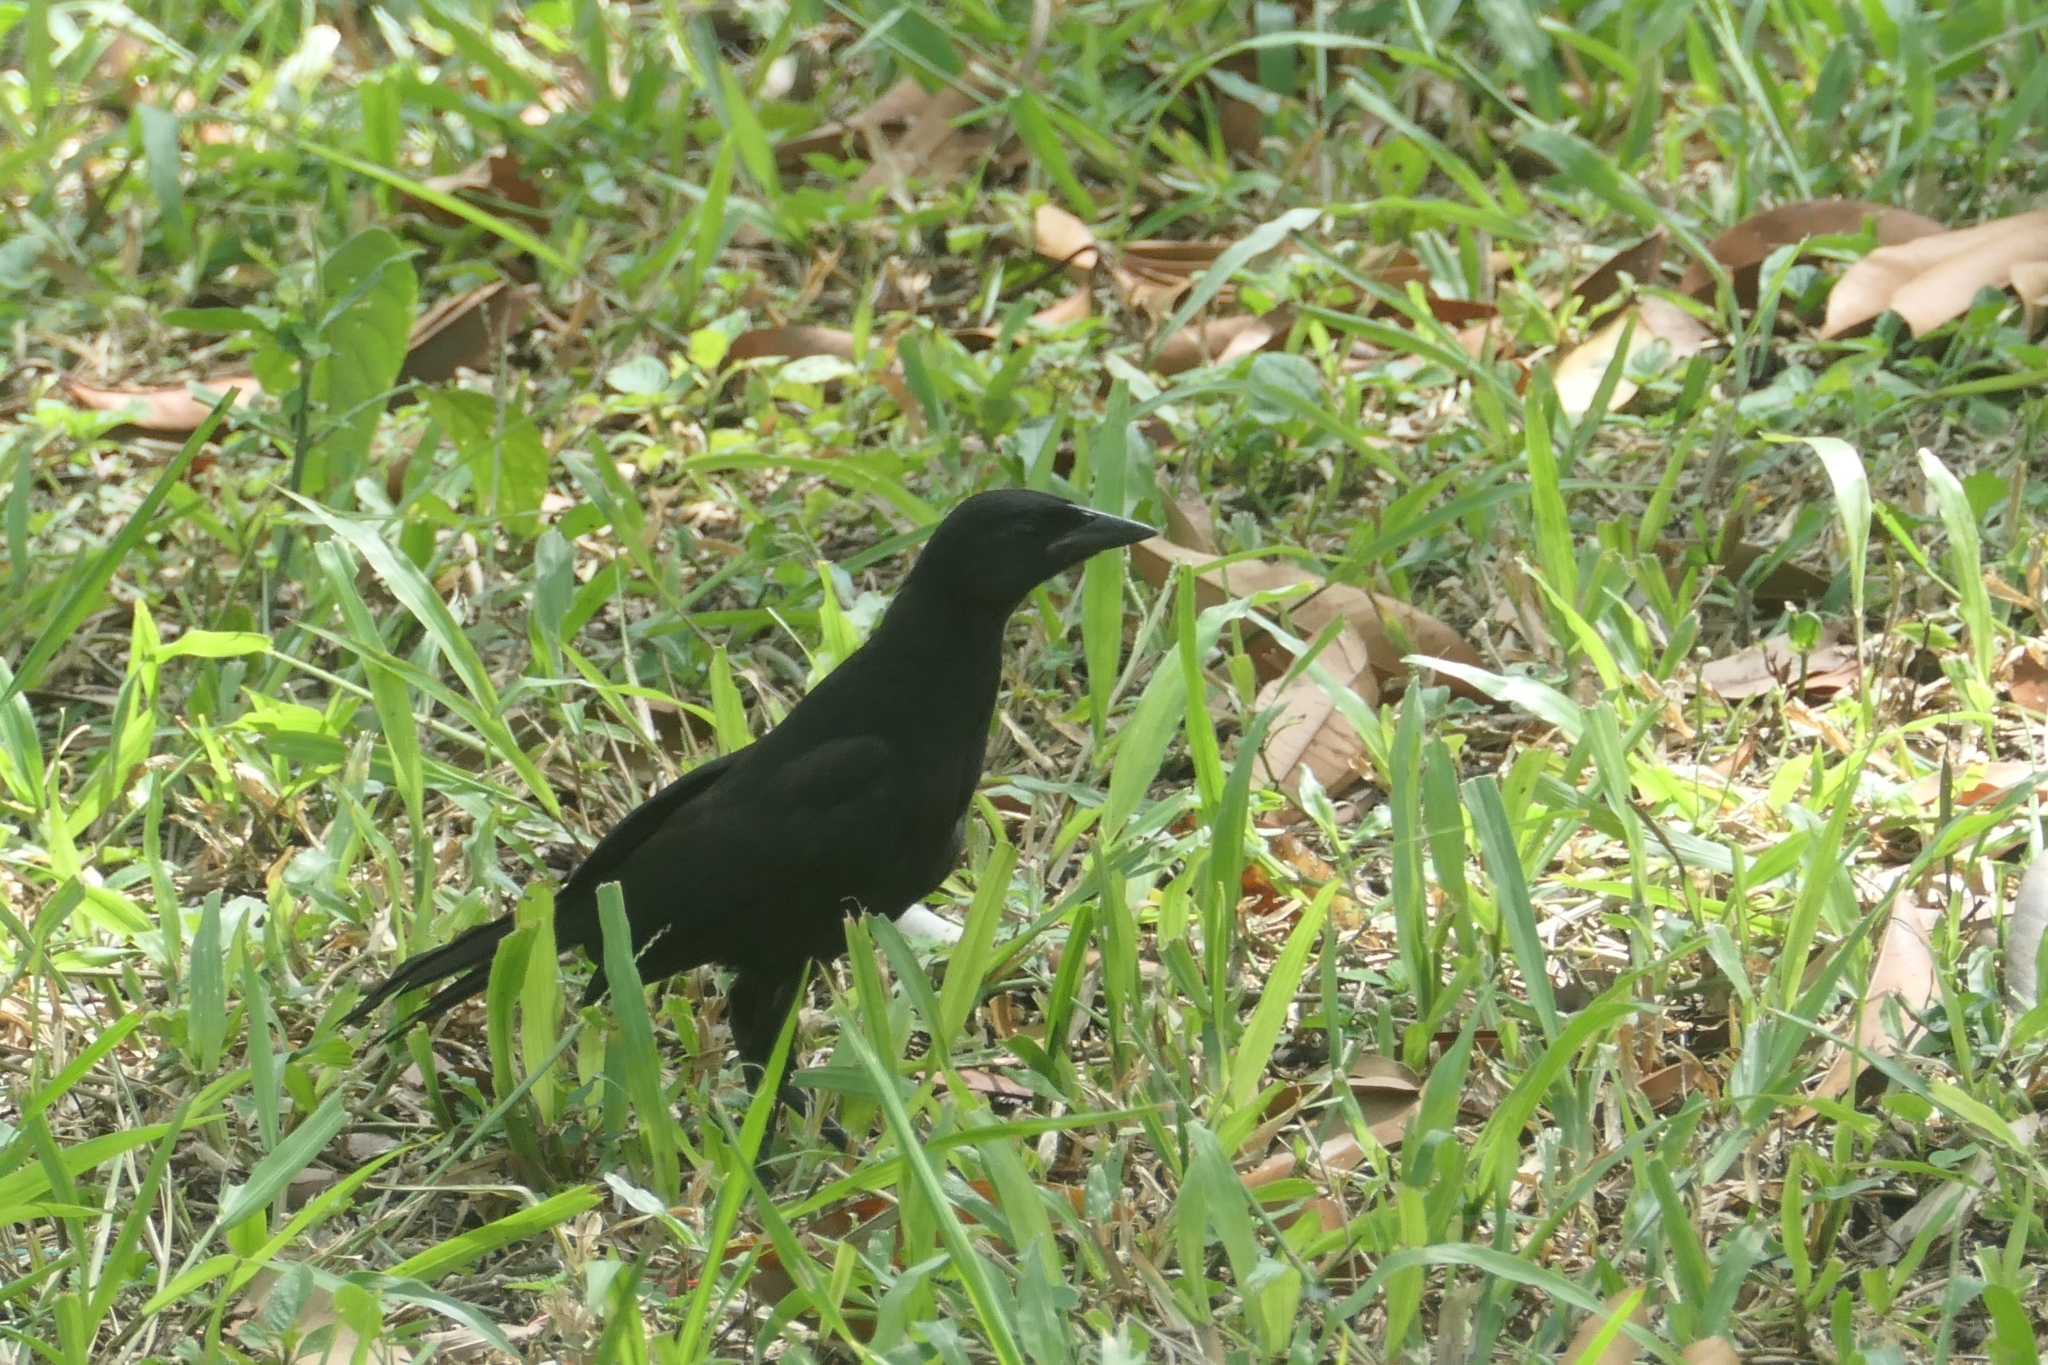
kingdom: Animalia
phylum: Chordata
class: Aves
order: Passeriformes
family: Icteridae
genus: Dives
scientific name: Dives dives
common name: Melodious blackbird
